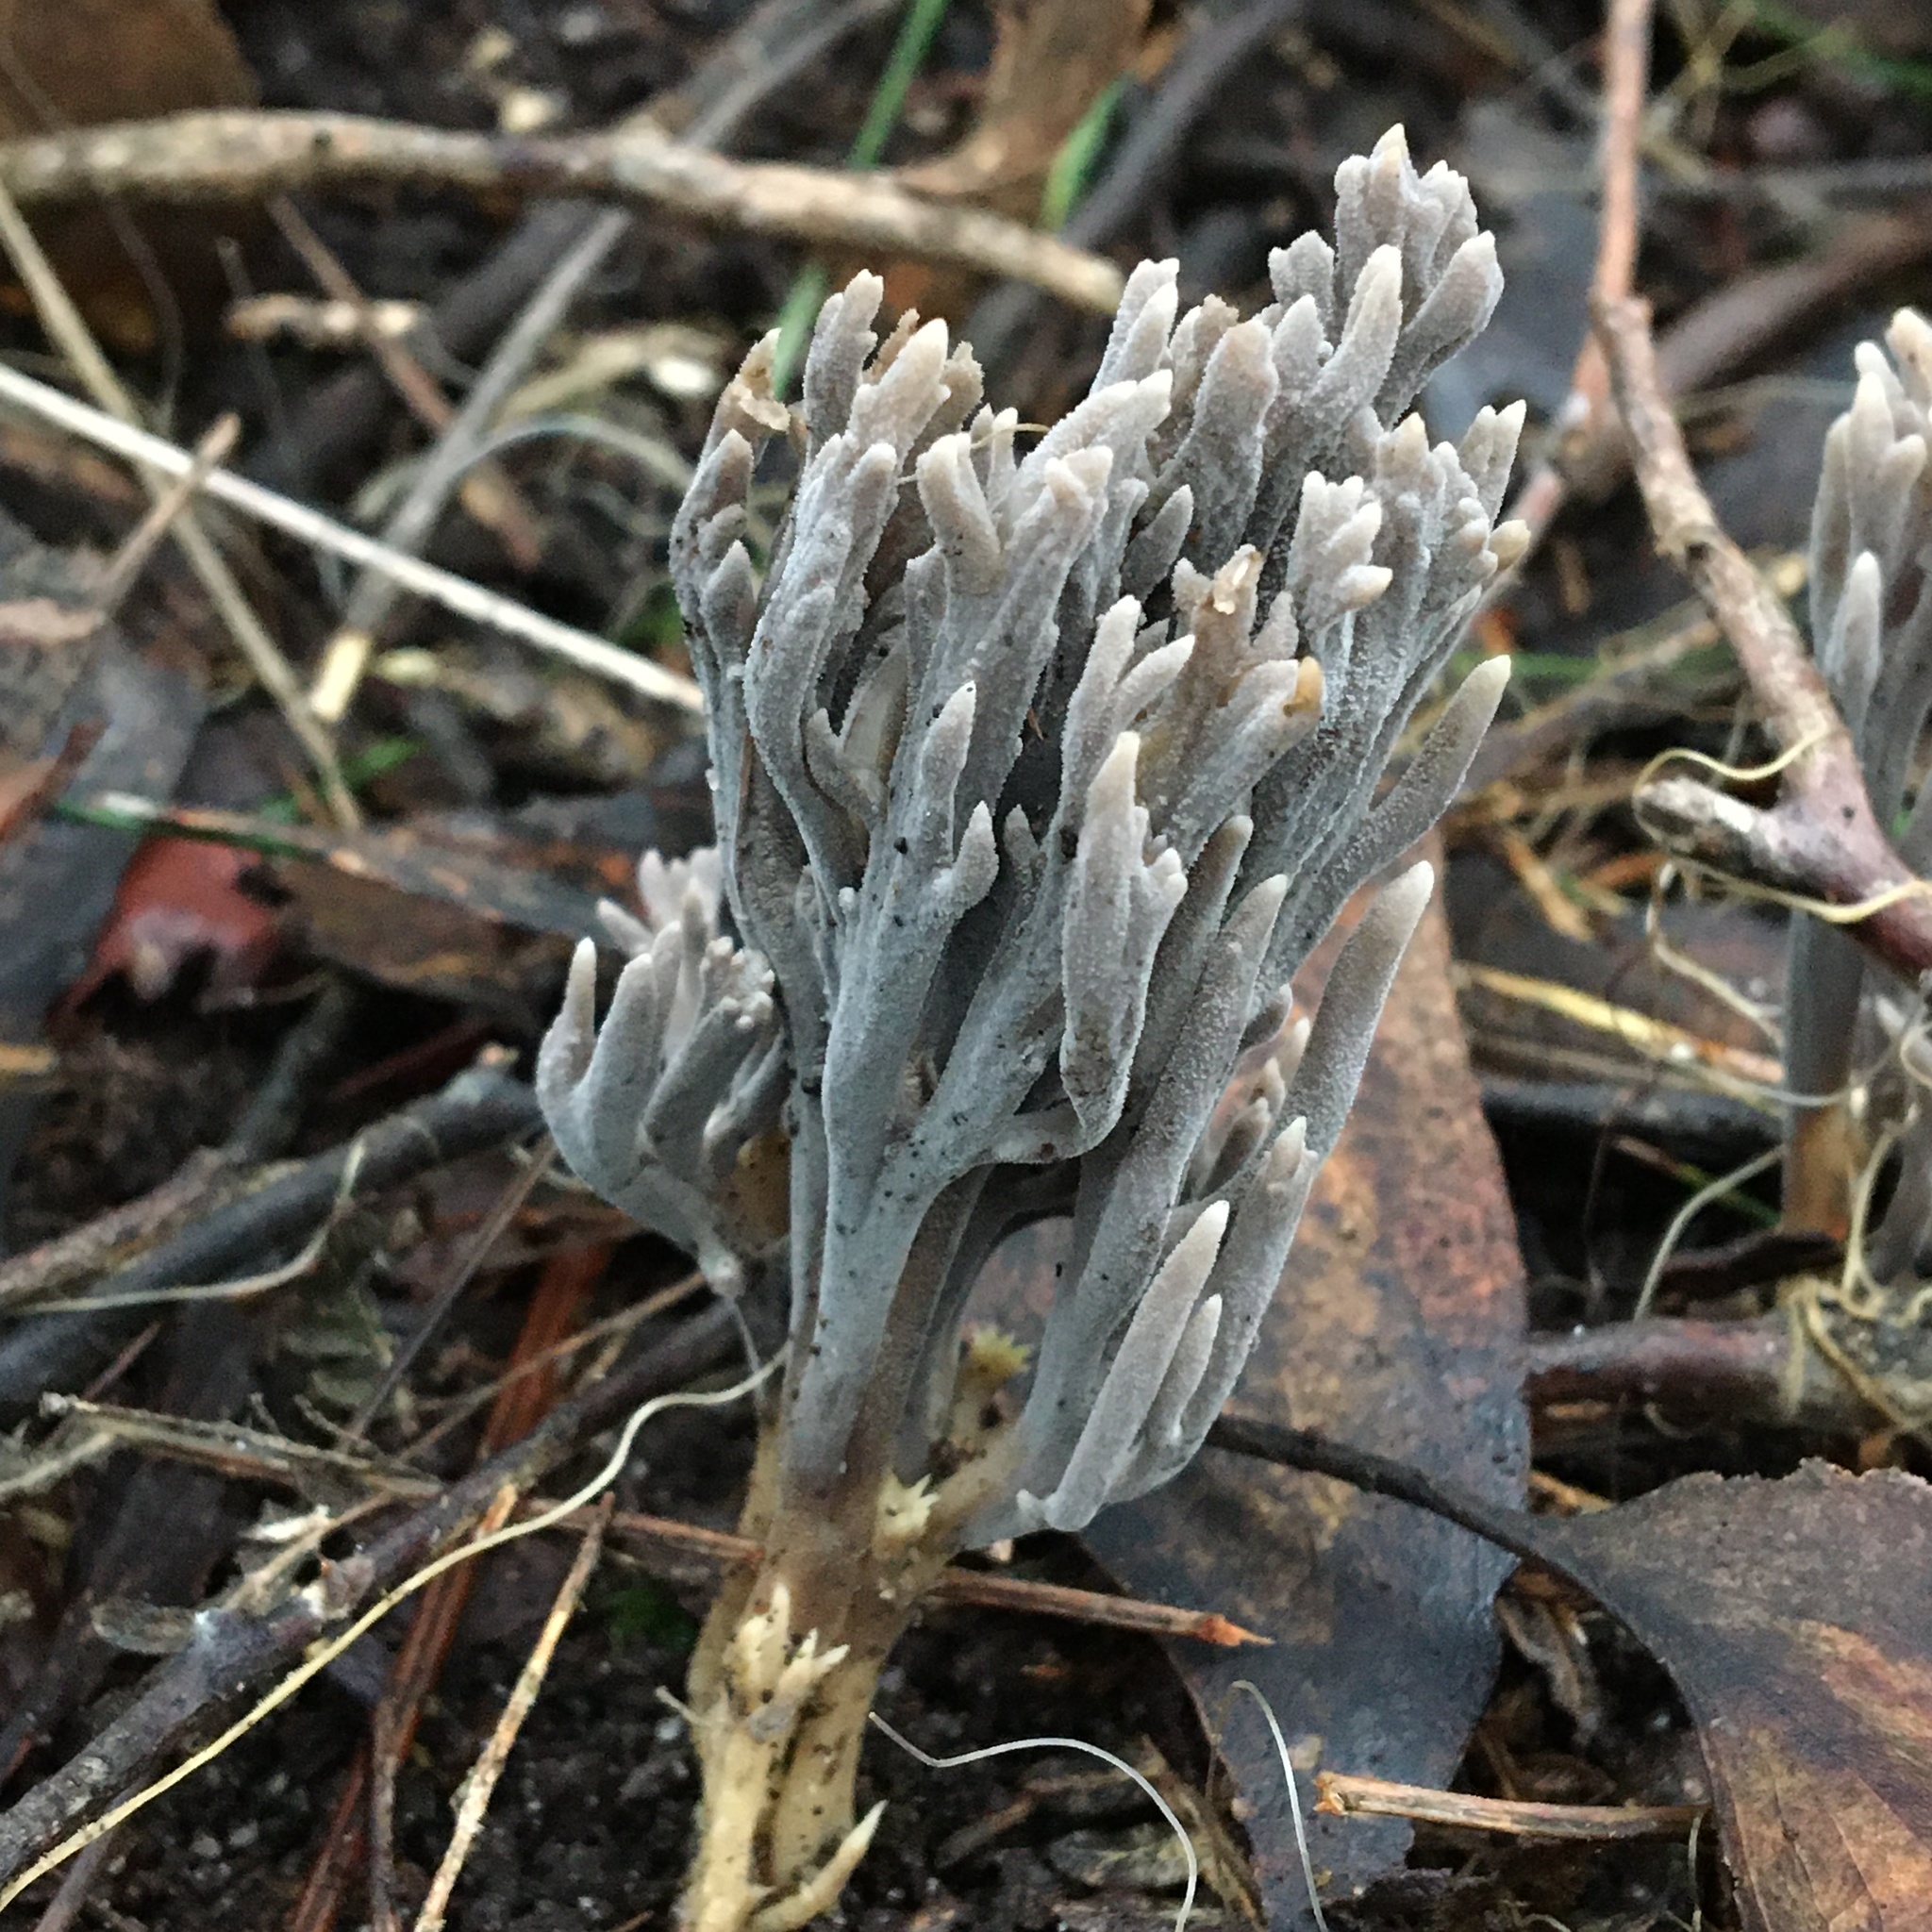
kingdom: Fungi
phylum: Basidiomycota
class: Agaricomycetes
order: Cantharellales
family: Hydnaceae
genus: Clavulina
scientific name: Clavulina cinerea
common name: Grey coral
